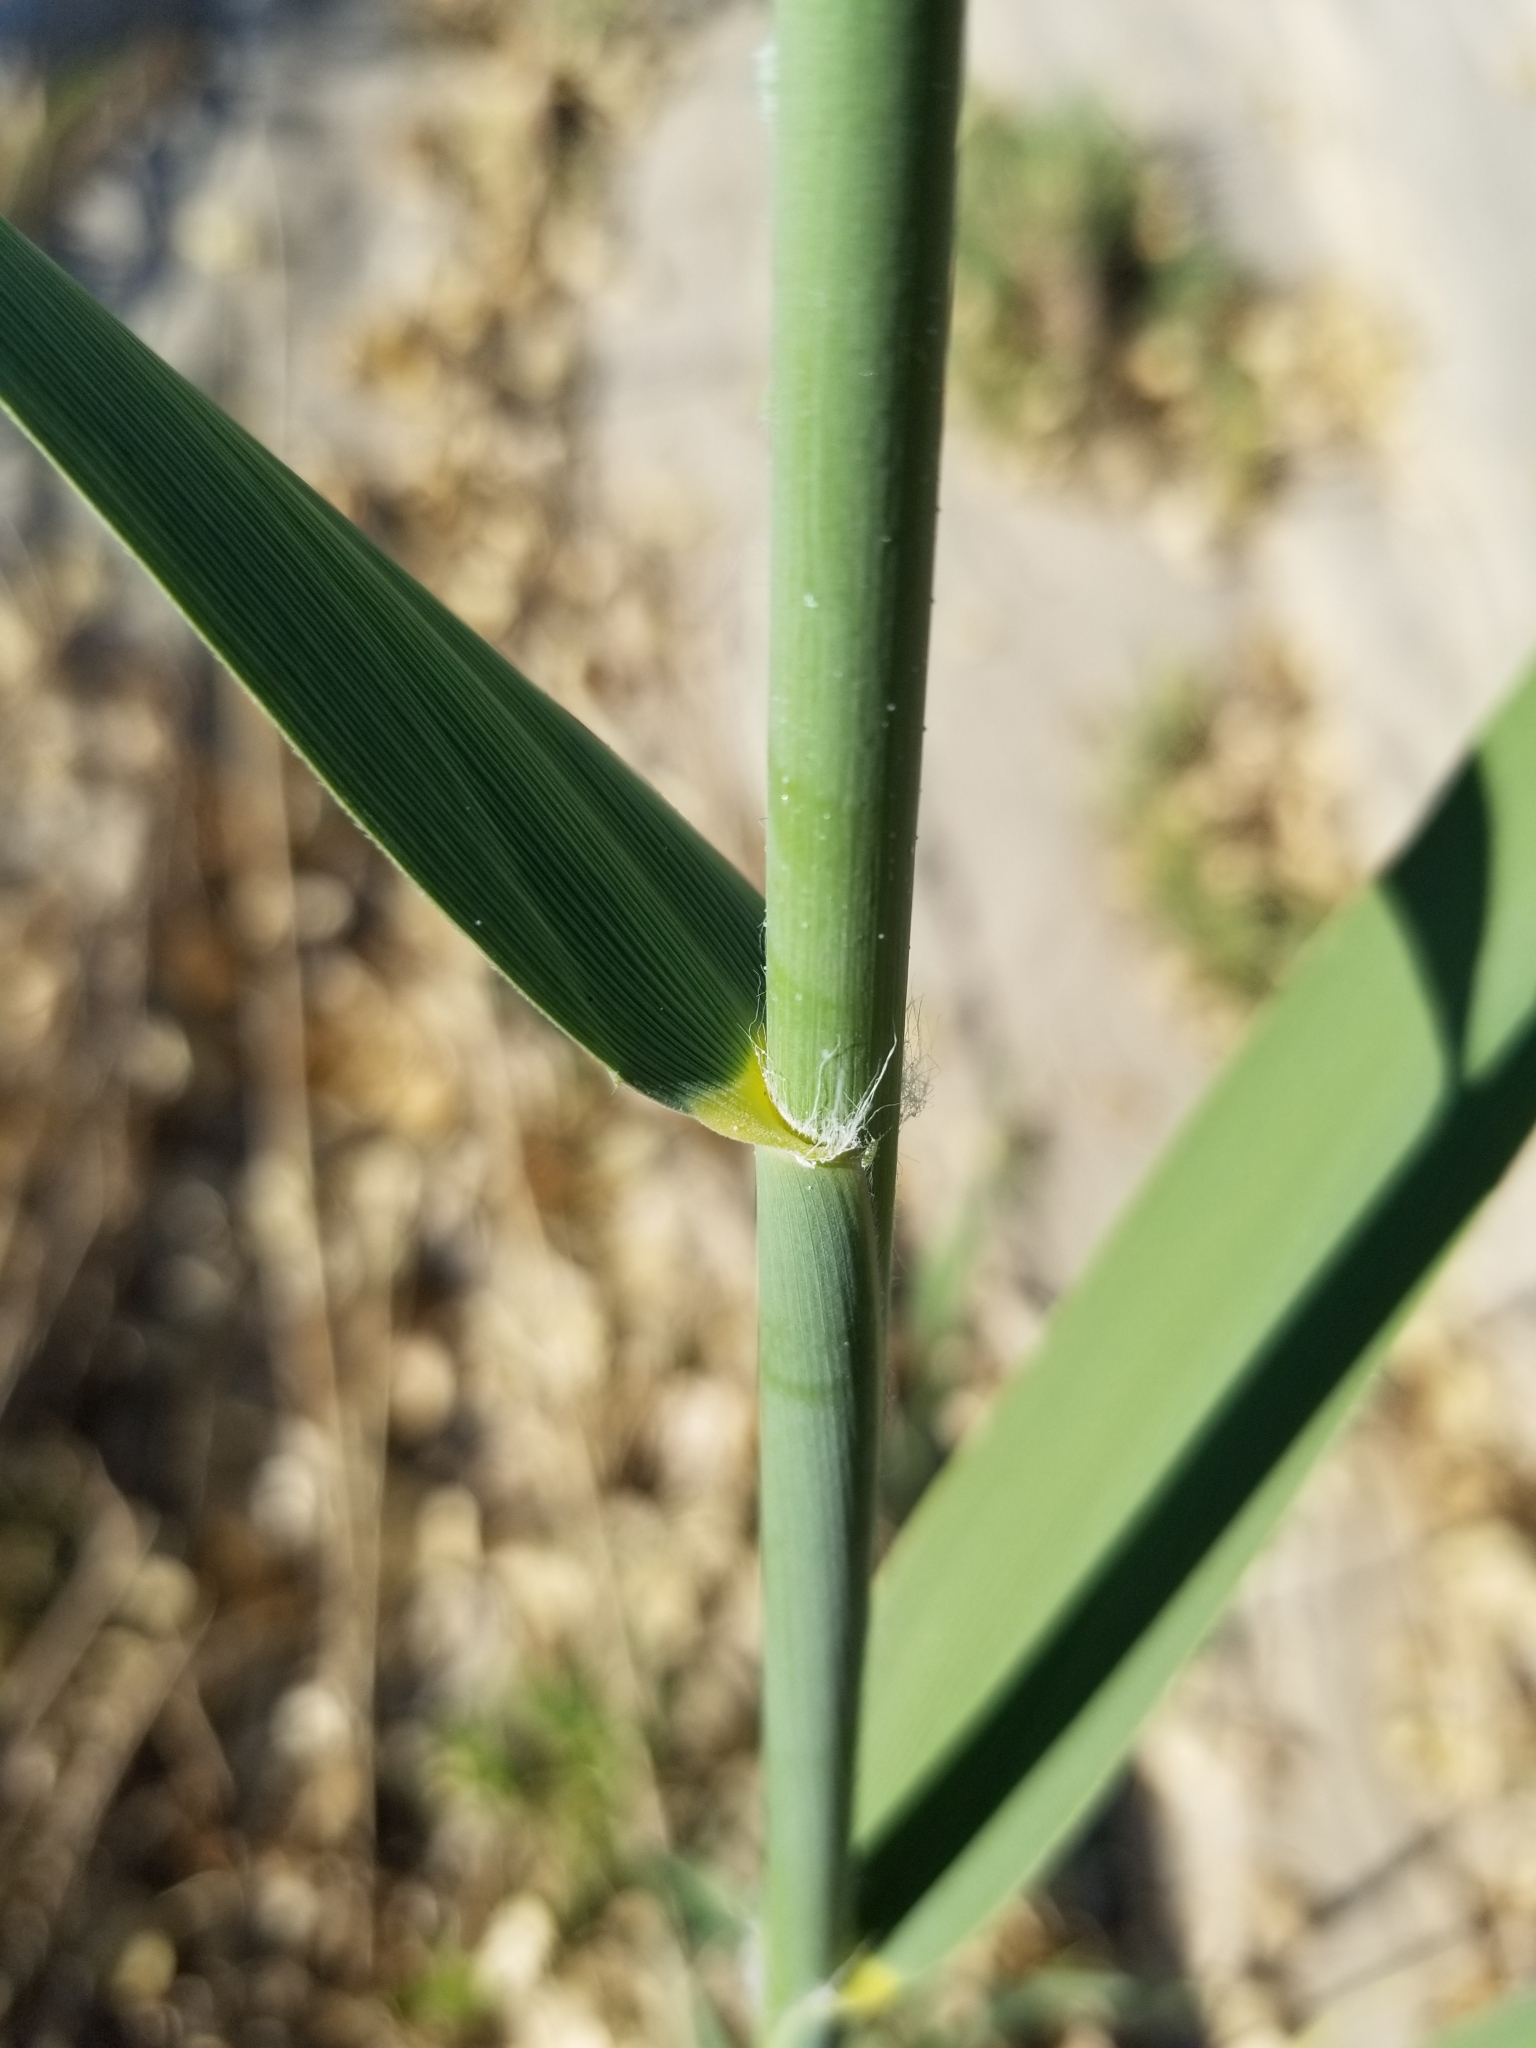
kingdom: Plantae
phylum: Tracheophyta
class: Liliopsida
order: Poales
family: Poaceae
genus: Phragmites
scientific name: Phragmites australis
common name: Common reed
